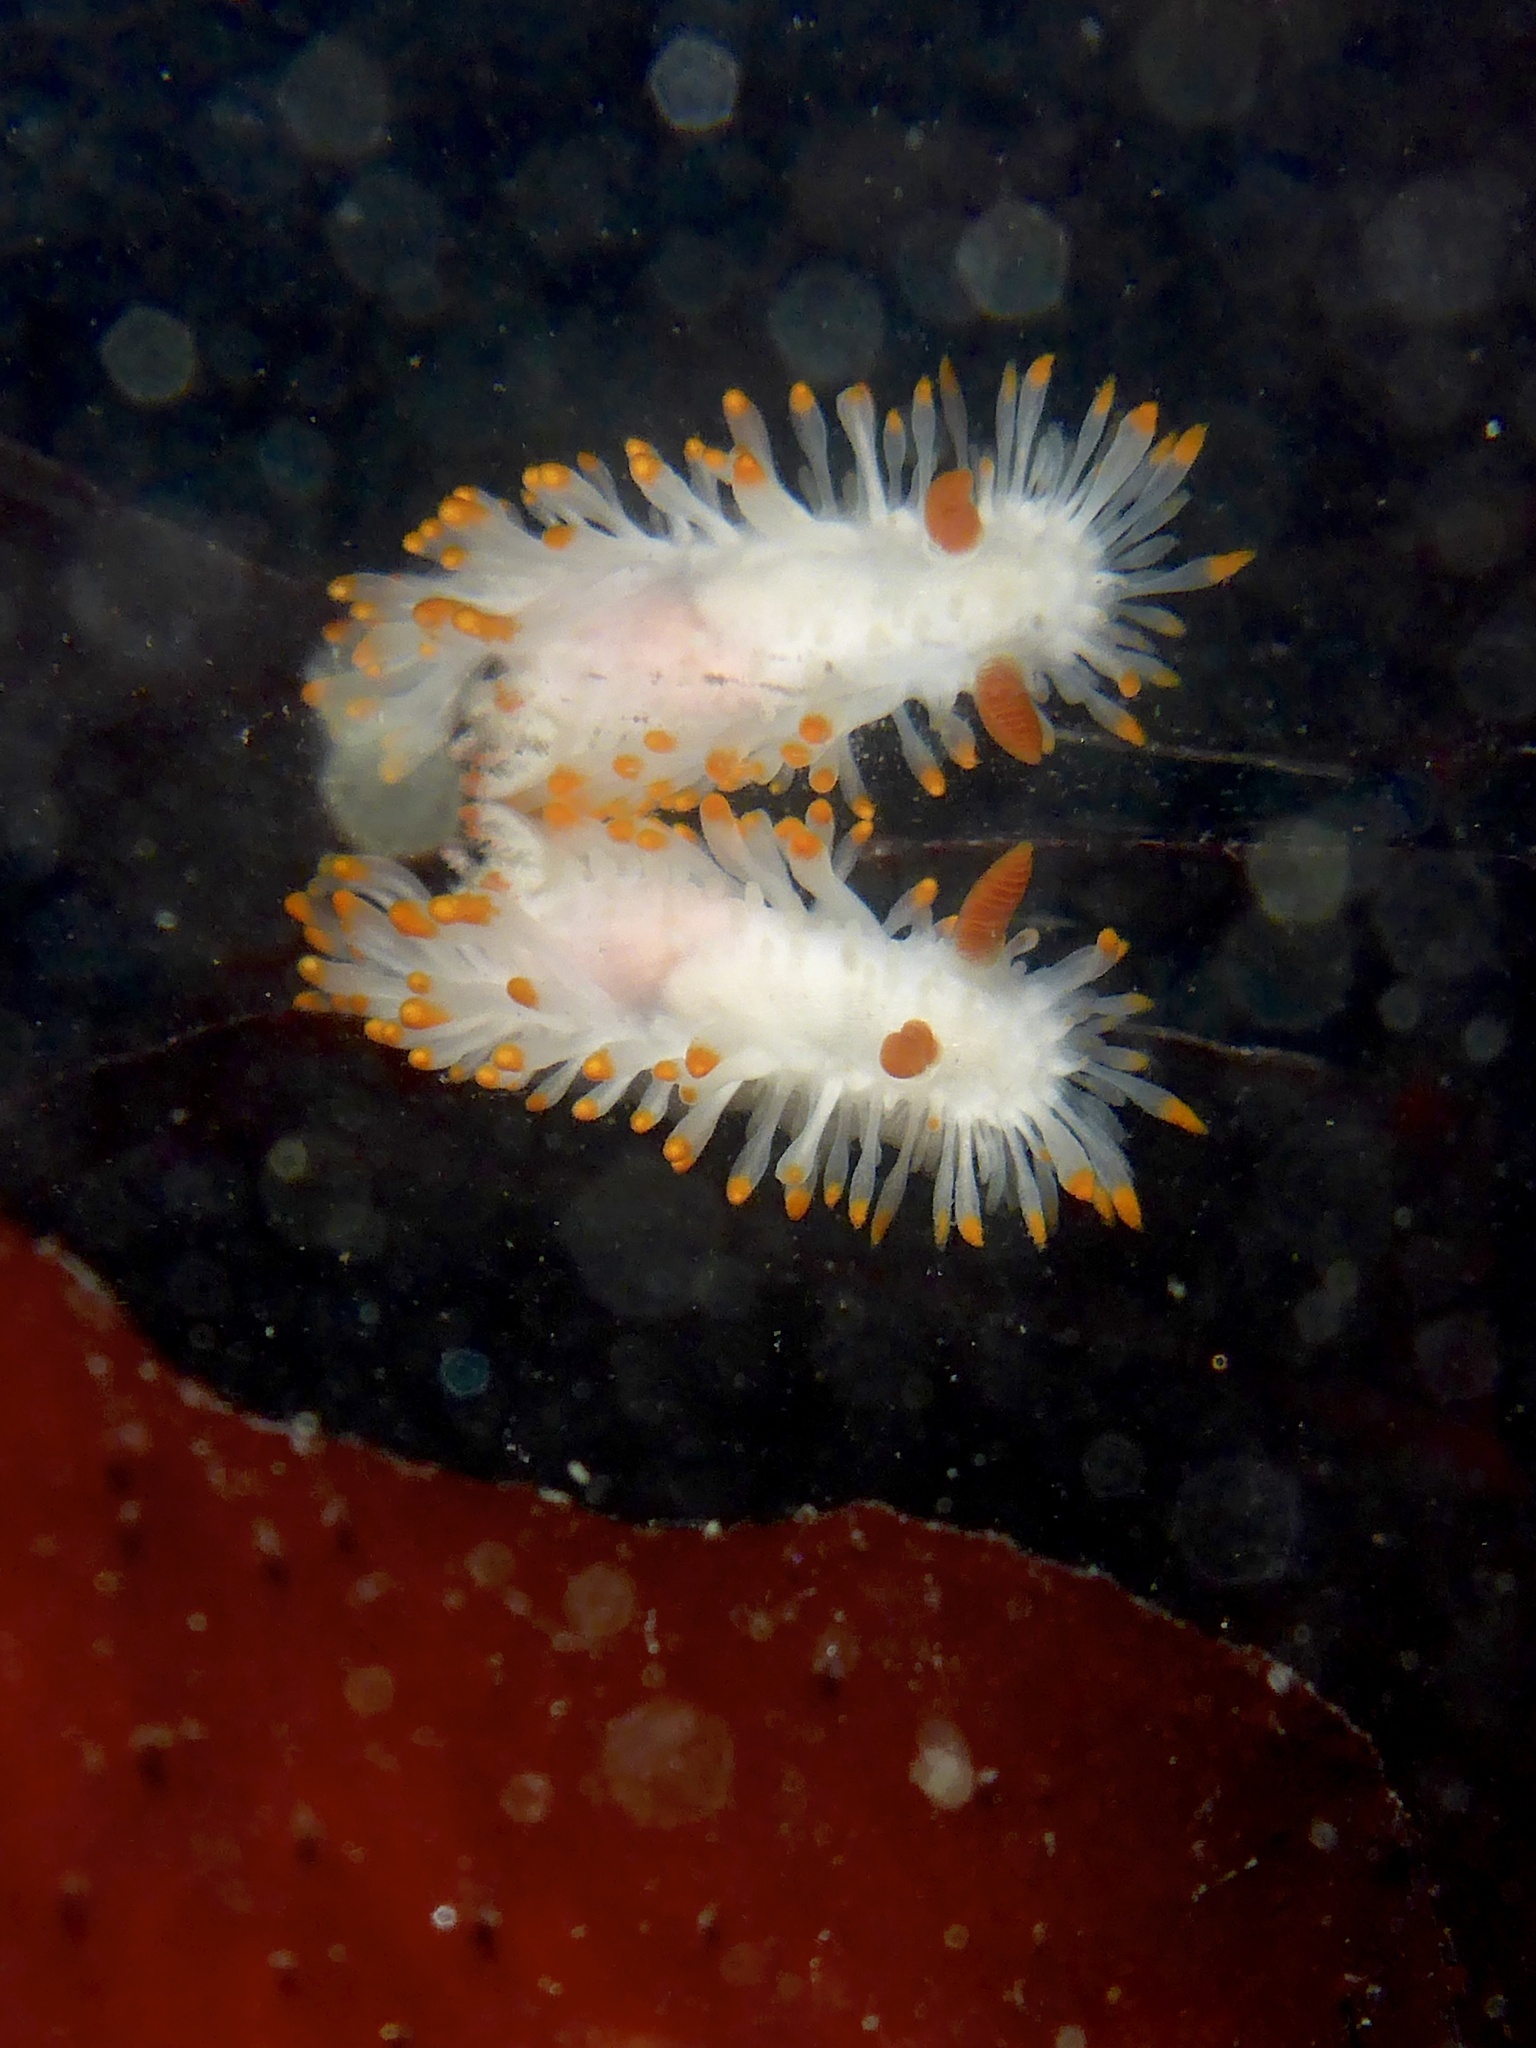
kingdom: Animalia
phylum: Mollusca
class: Gastropoda
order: Nudibranchia
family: Polyceridae
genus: Limacia
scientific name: Limacia cockerelli
